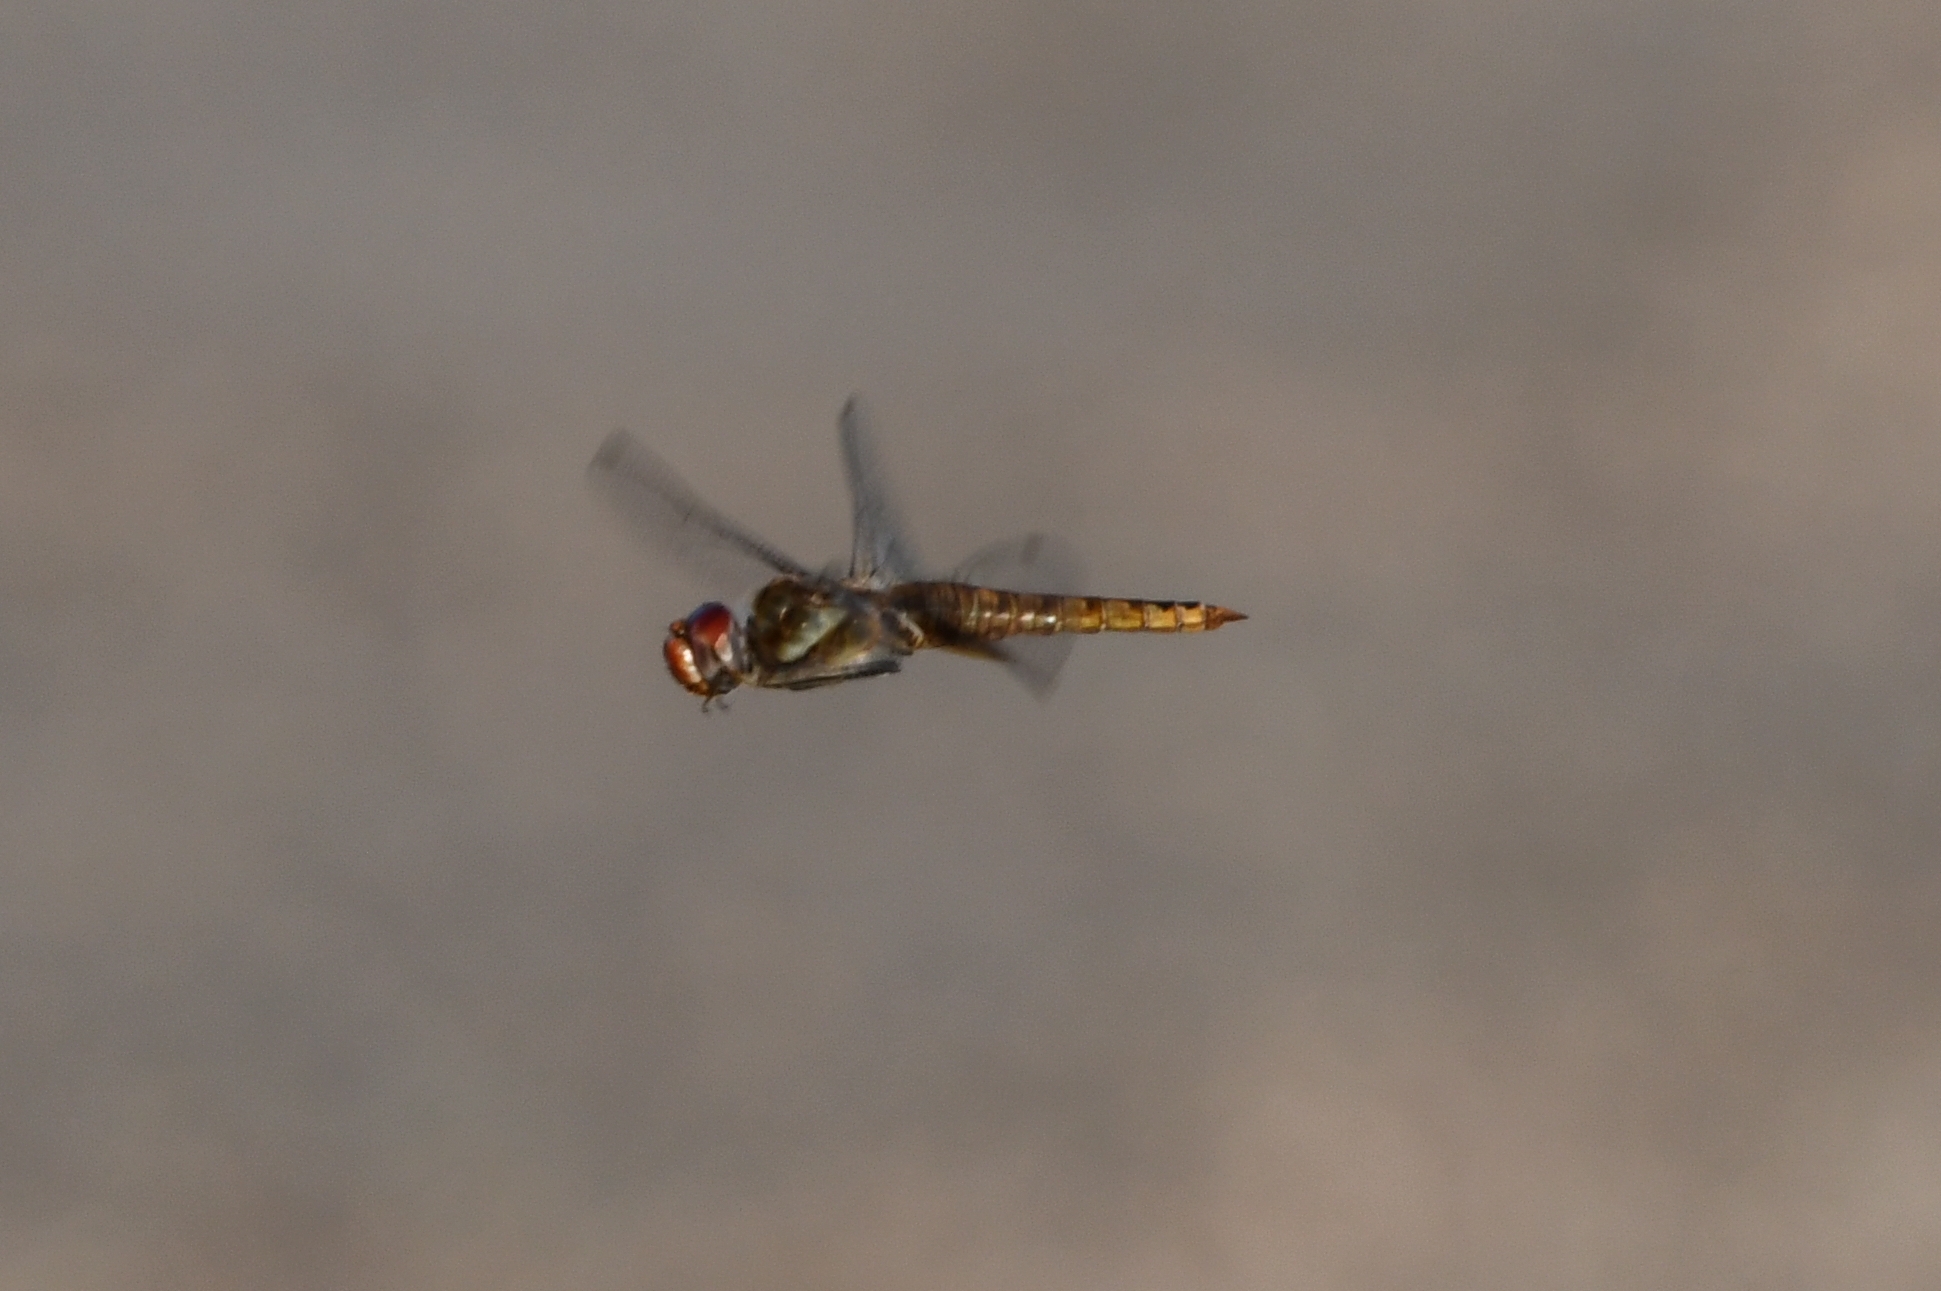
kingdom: Animalia
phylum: Arthropoda
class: Insecta
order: Odonata
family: Libellulidae
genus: Pantala
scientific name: Pantala hymenaea
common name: Spot-winged glider
